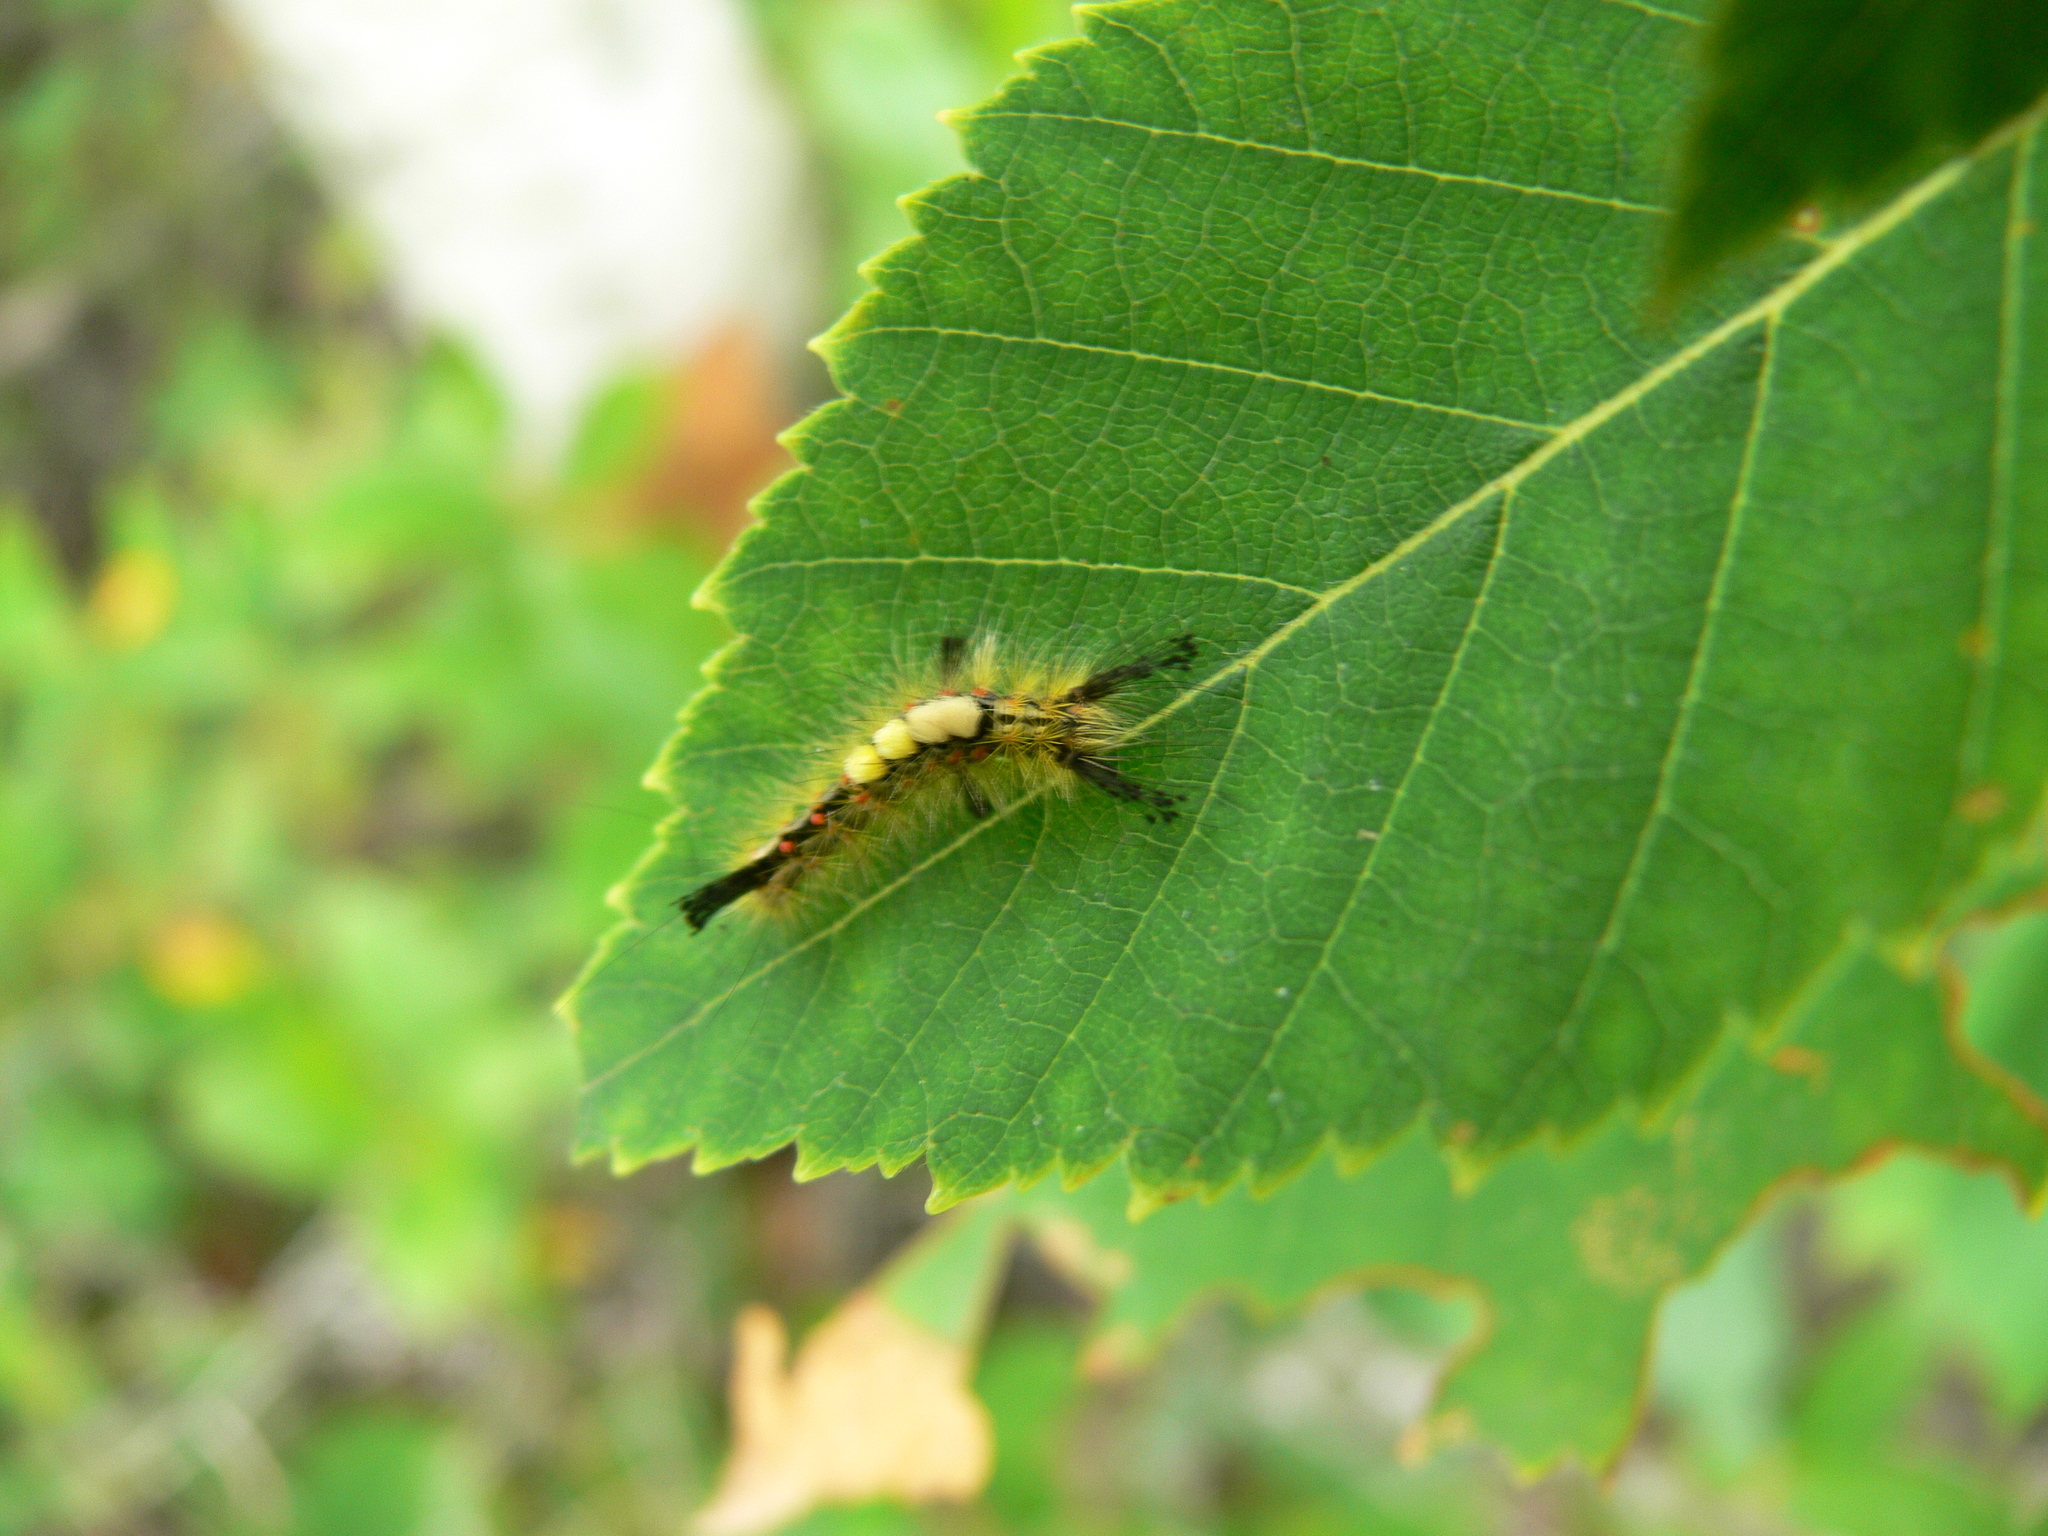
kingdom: Animalia
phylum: Arthropoda
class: Insecta
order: Lepidoptera
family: Erebidae
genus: Orgyia
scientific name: Orgyia antiqua
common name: Vapourer
